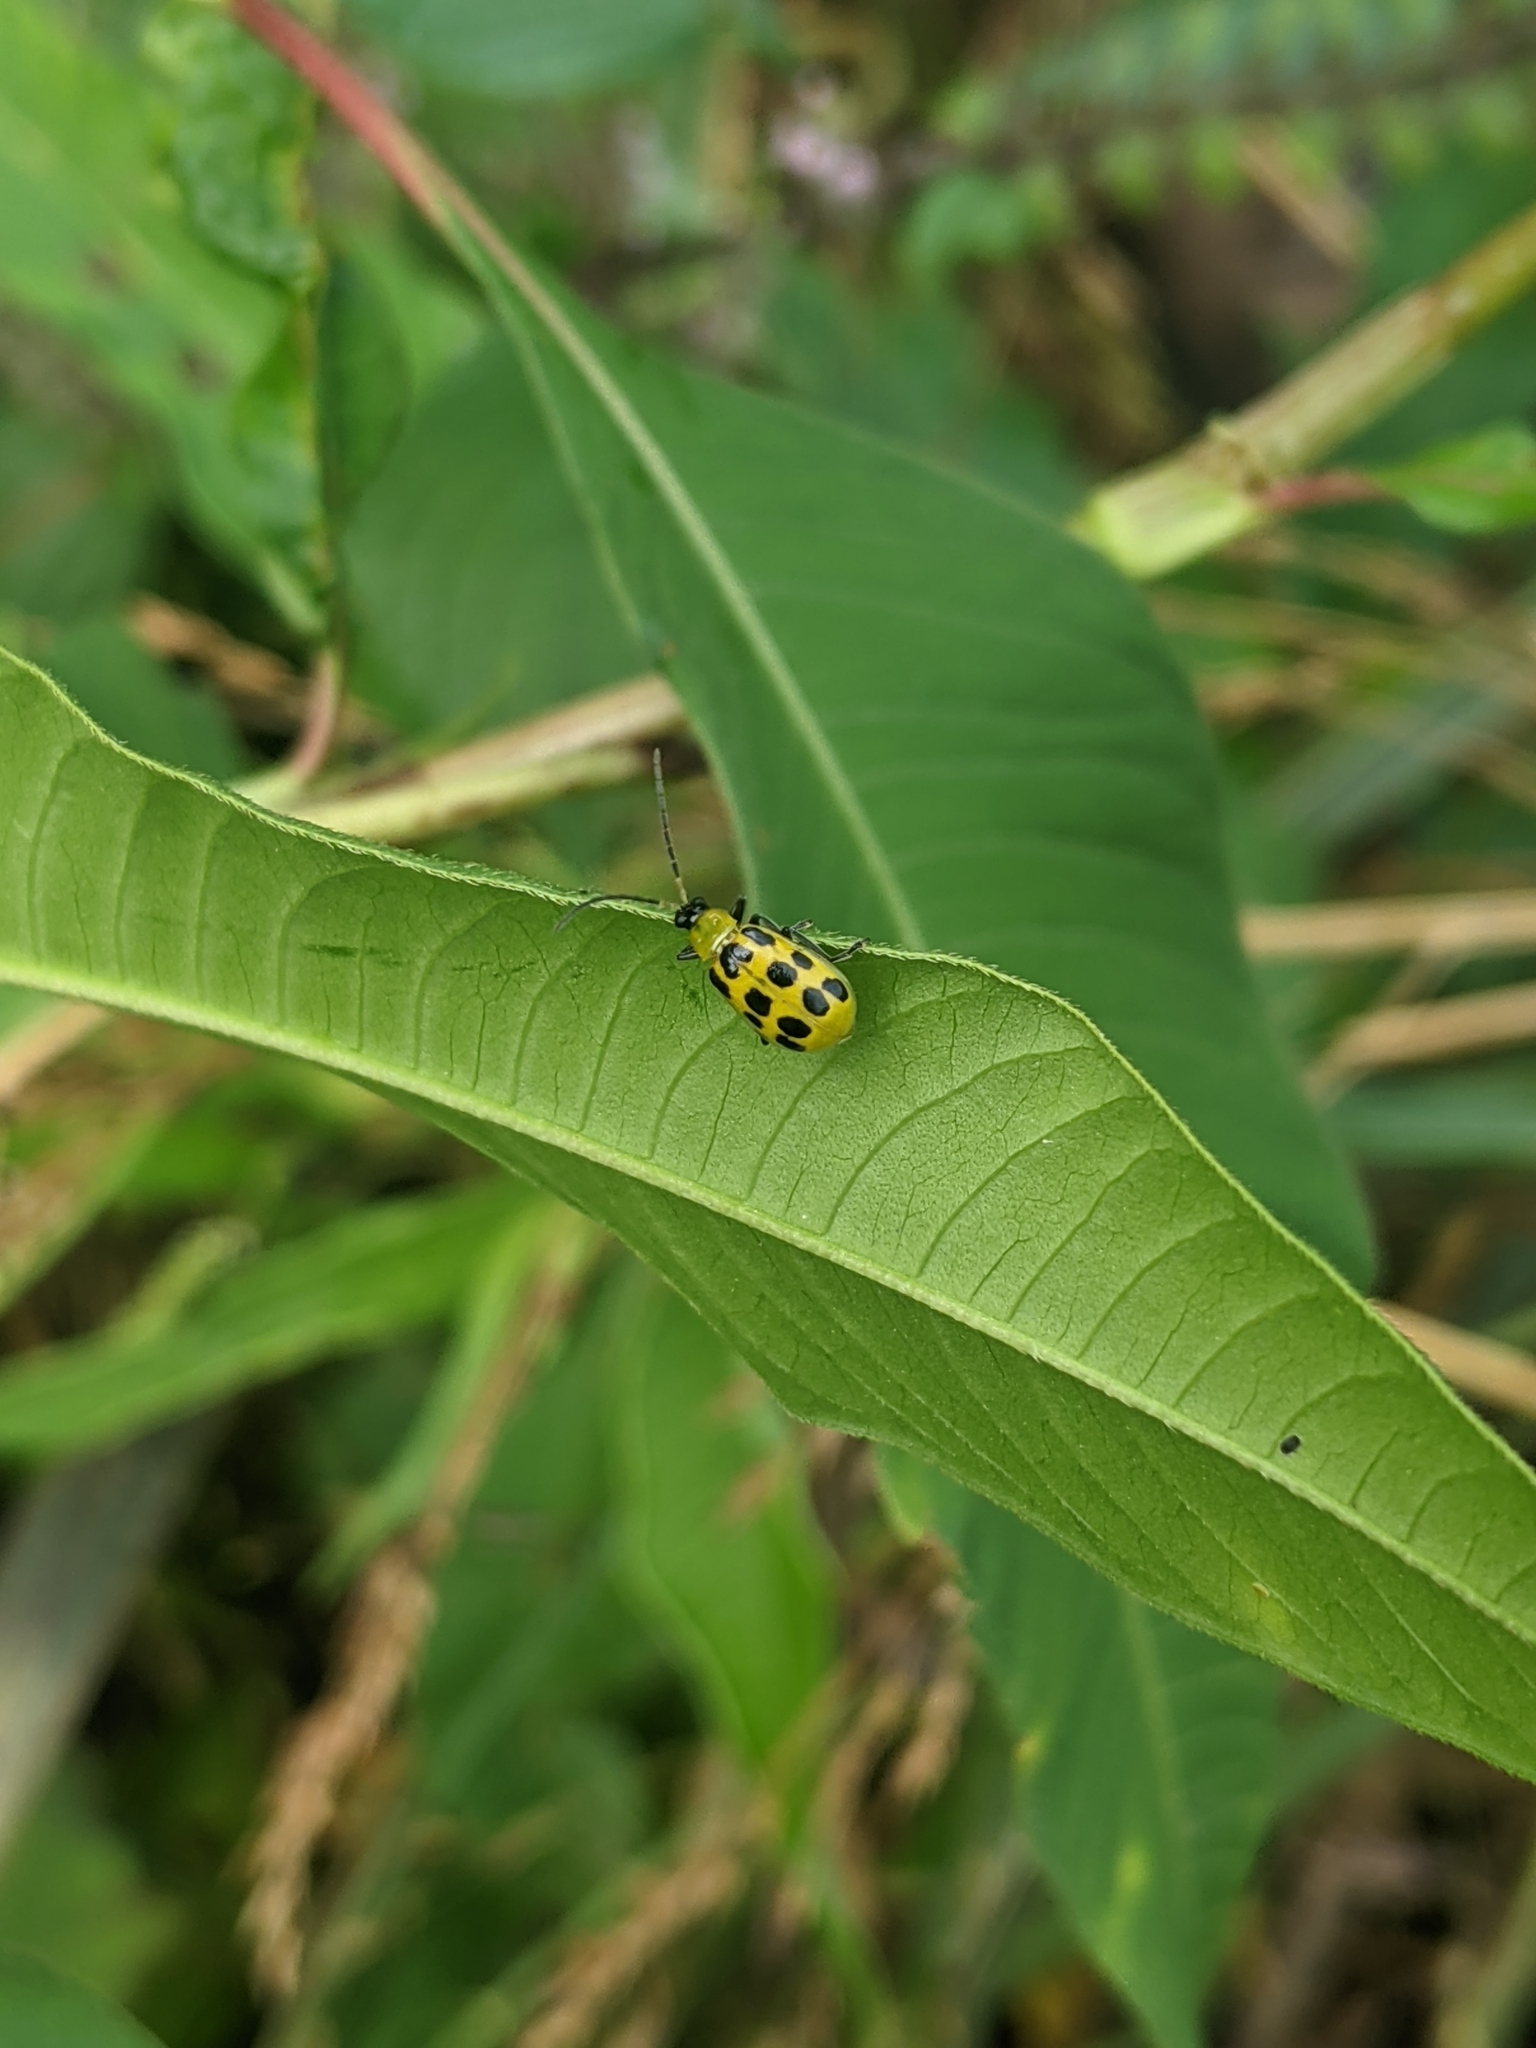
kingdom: Animalia
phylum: Arthropoda
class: Insecta
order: Coleoptera
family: Chrysomelidae
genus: Diabrotica
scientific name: Diabrotica undecimpunctata
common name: Spotted cucumber beetle
